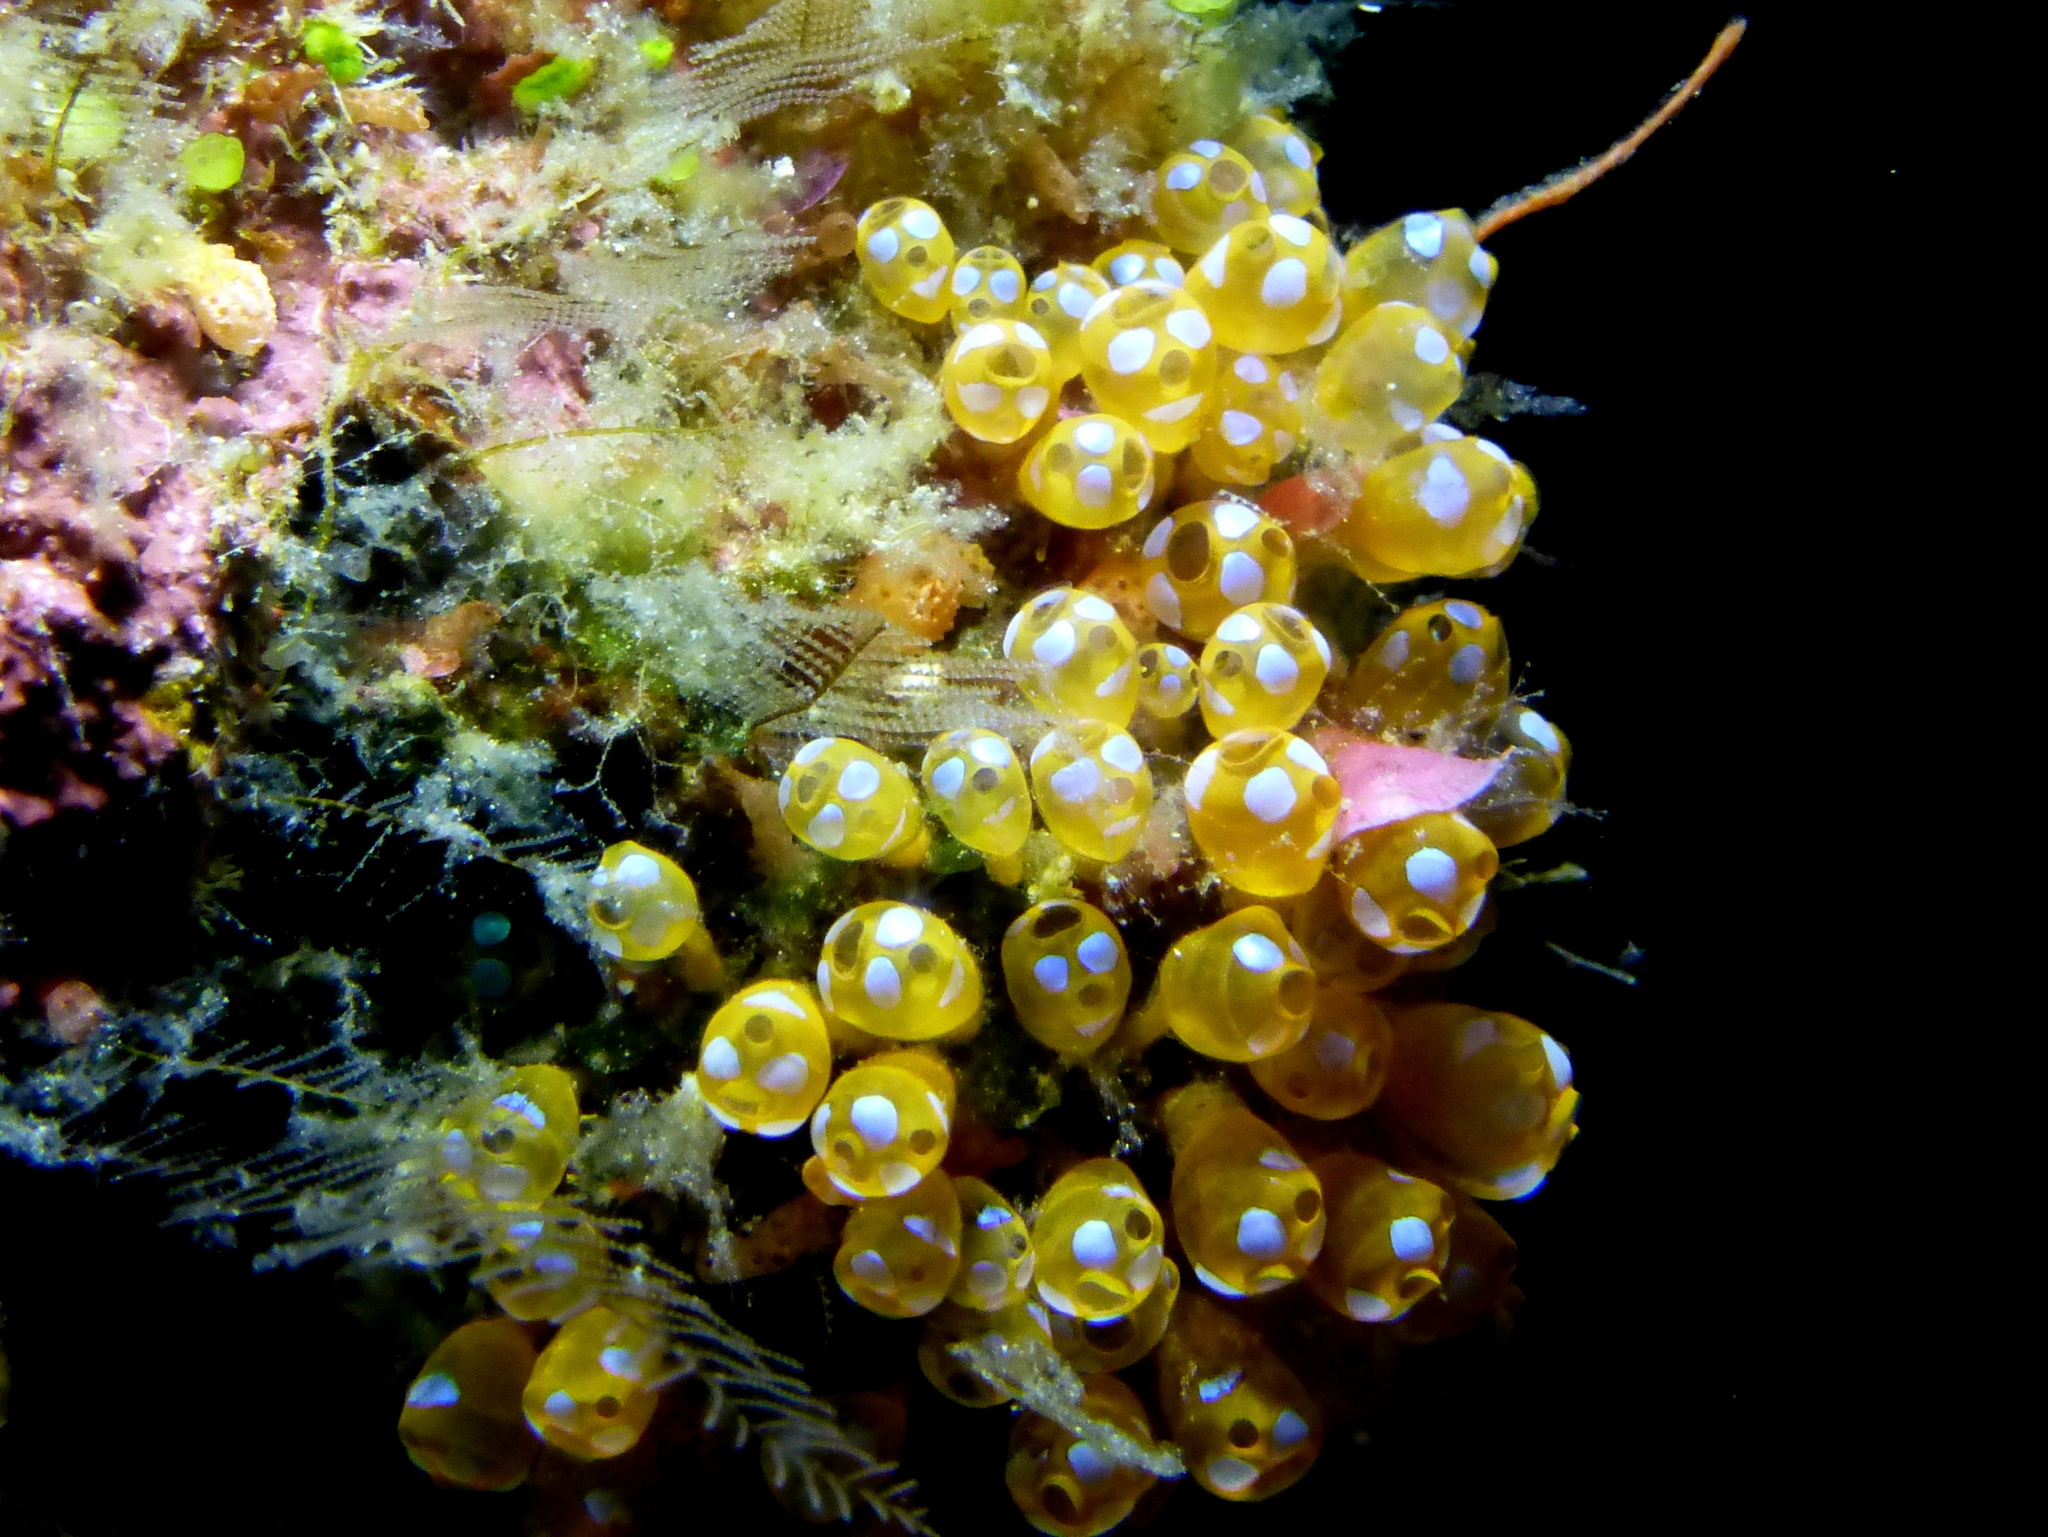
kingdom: Animalia
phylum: Chordata
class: Ascidiacea
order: Aplousobranchia
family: Clavelinidae
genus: Pycnoclavella
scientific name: Pycnoclavella diminuta
